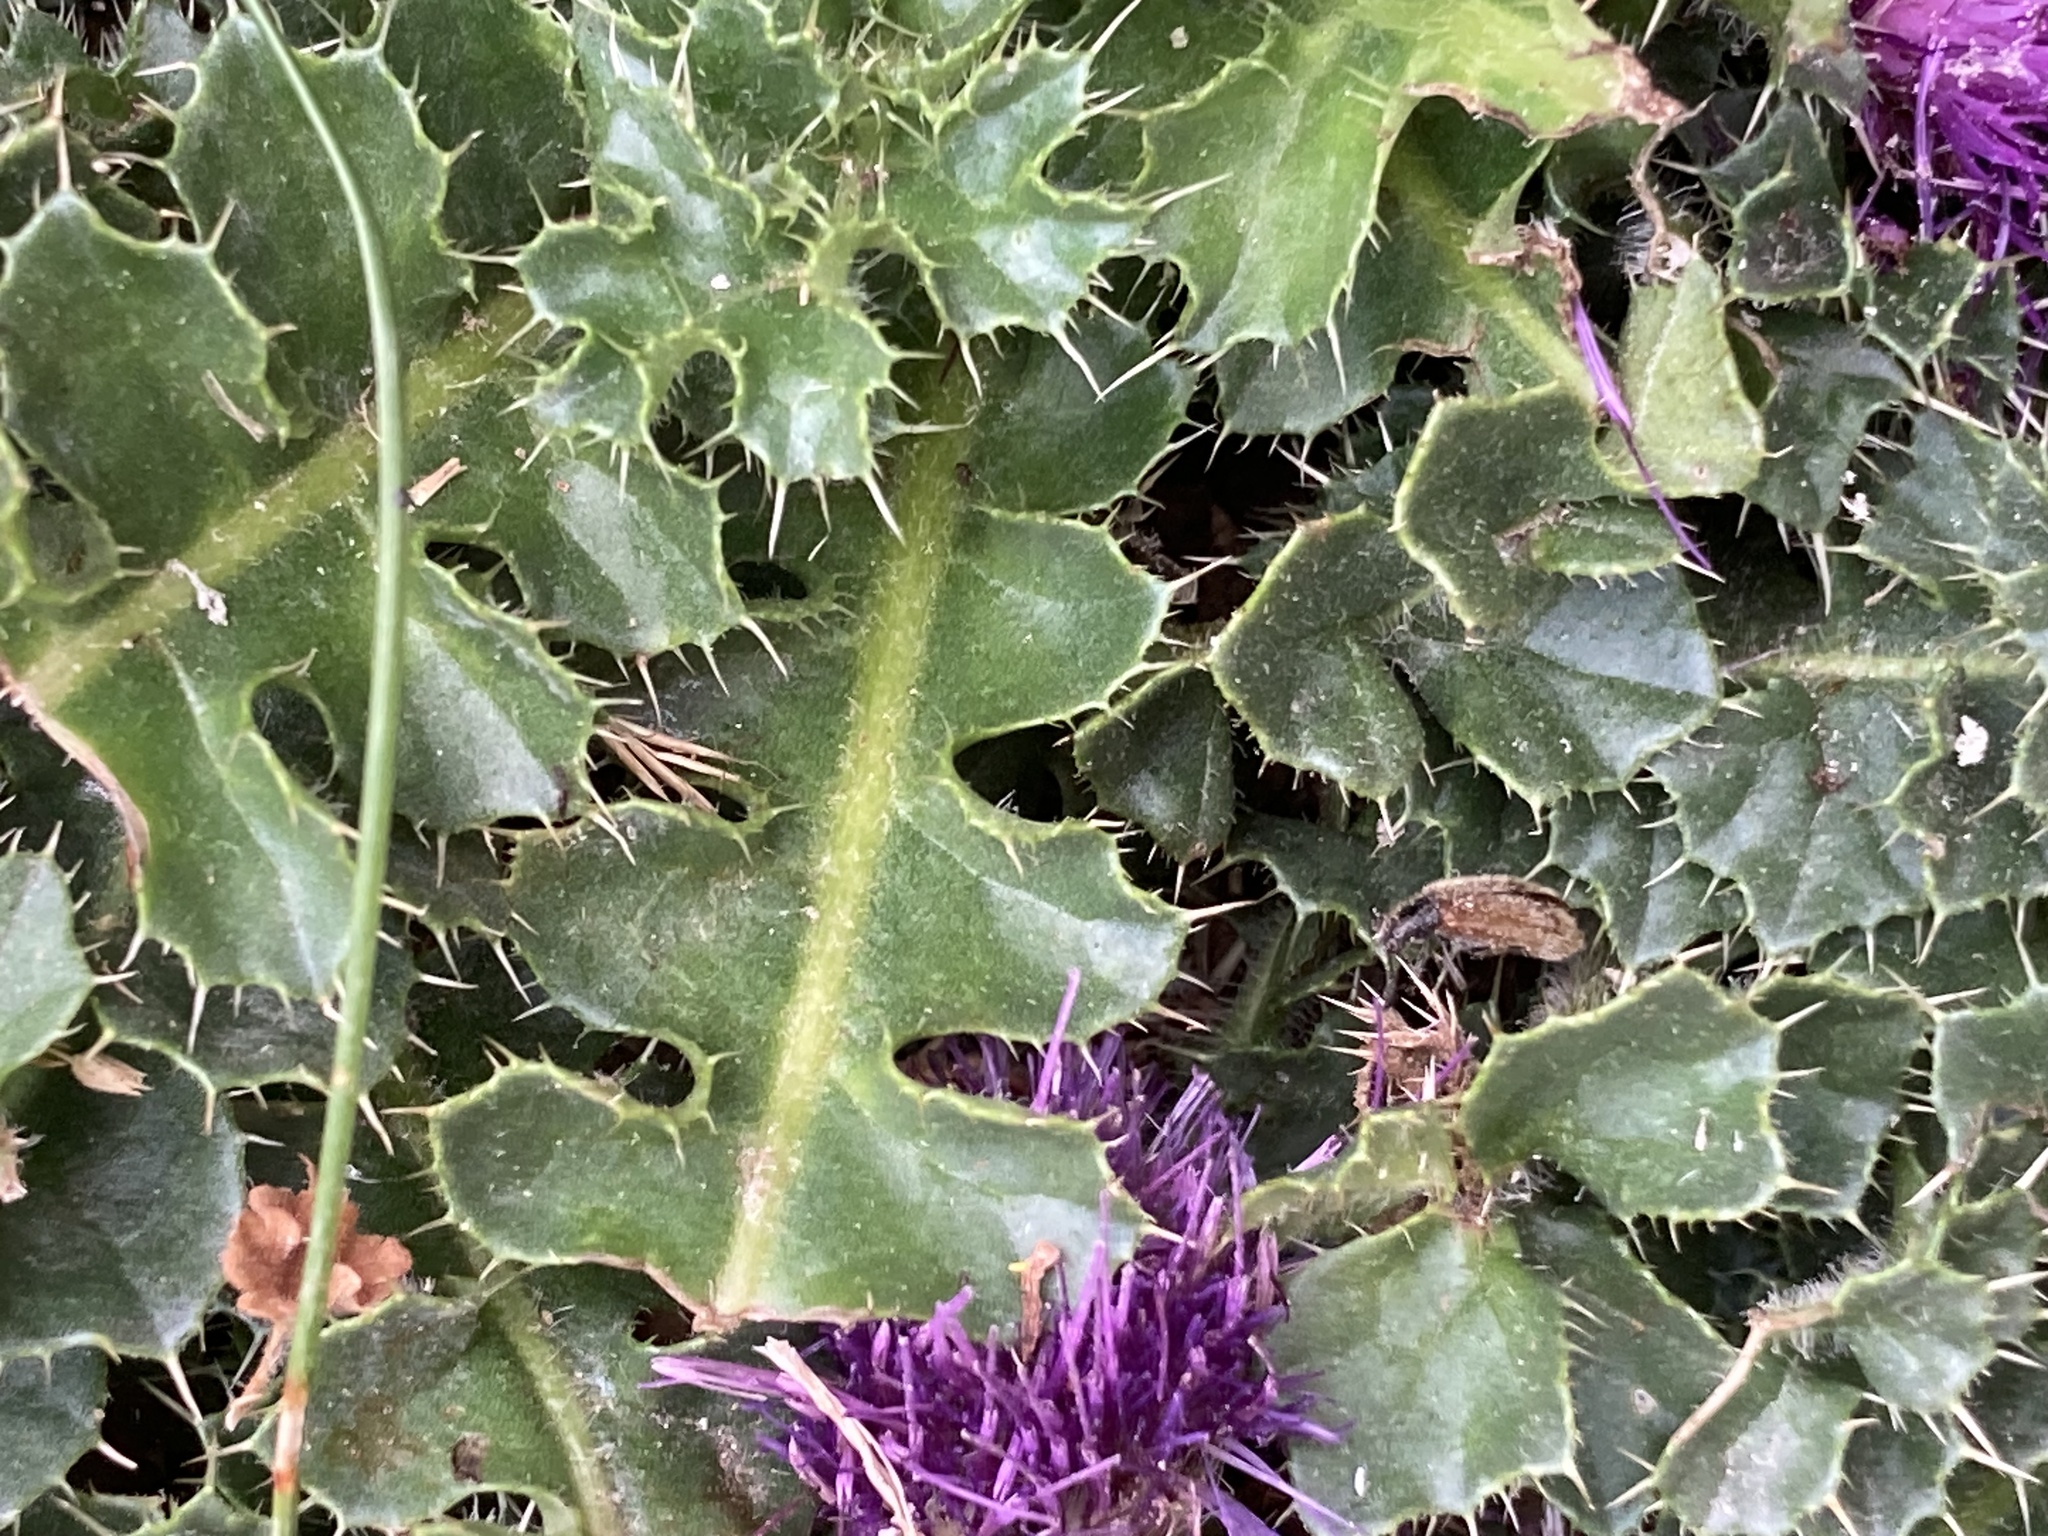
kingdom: Plantae
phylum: Tracheophyta
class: Magnoliopsida
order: Asterales
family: Asteraceae
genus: Cirsium
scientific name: Cirsium acaulon
